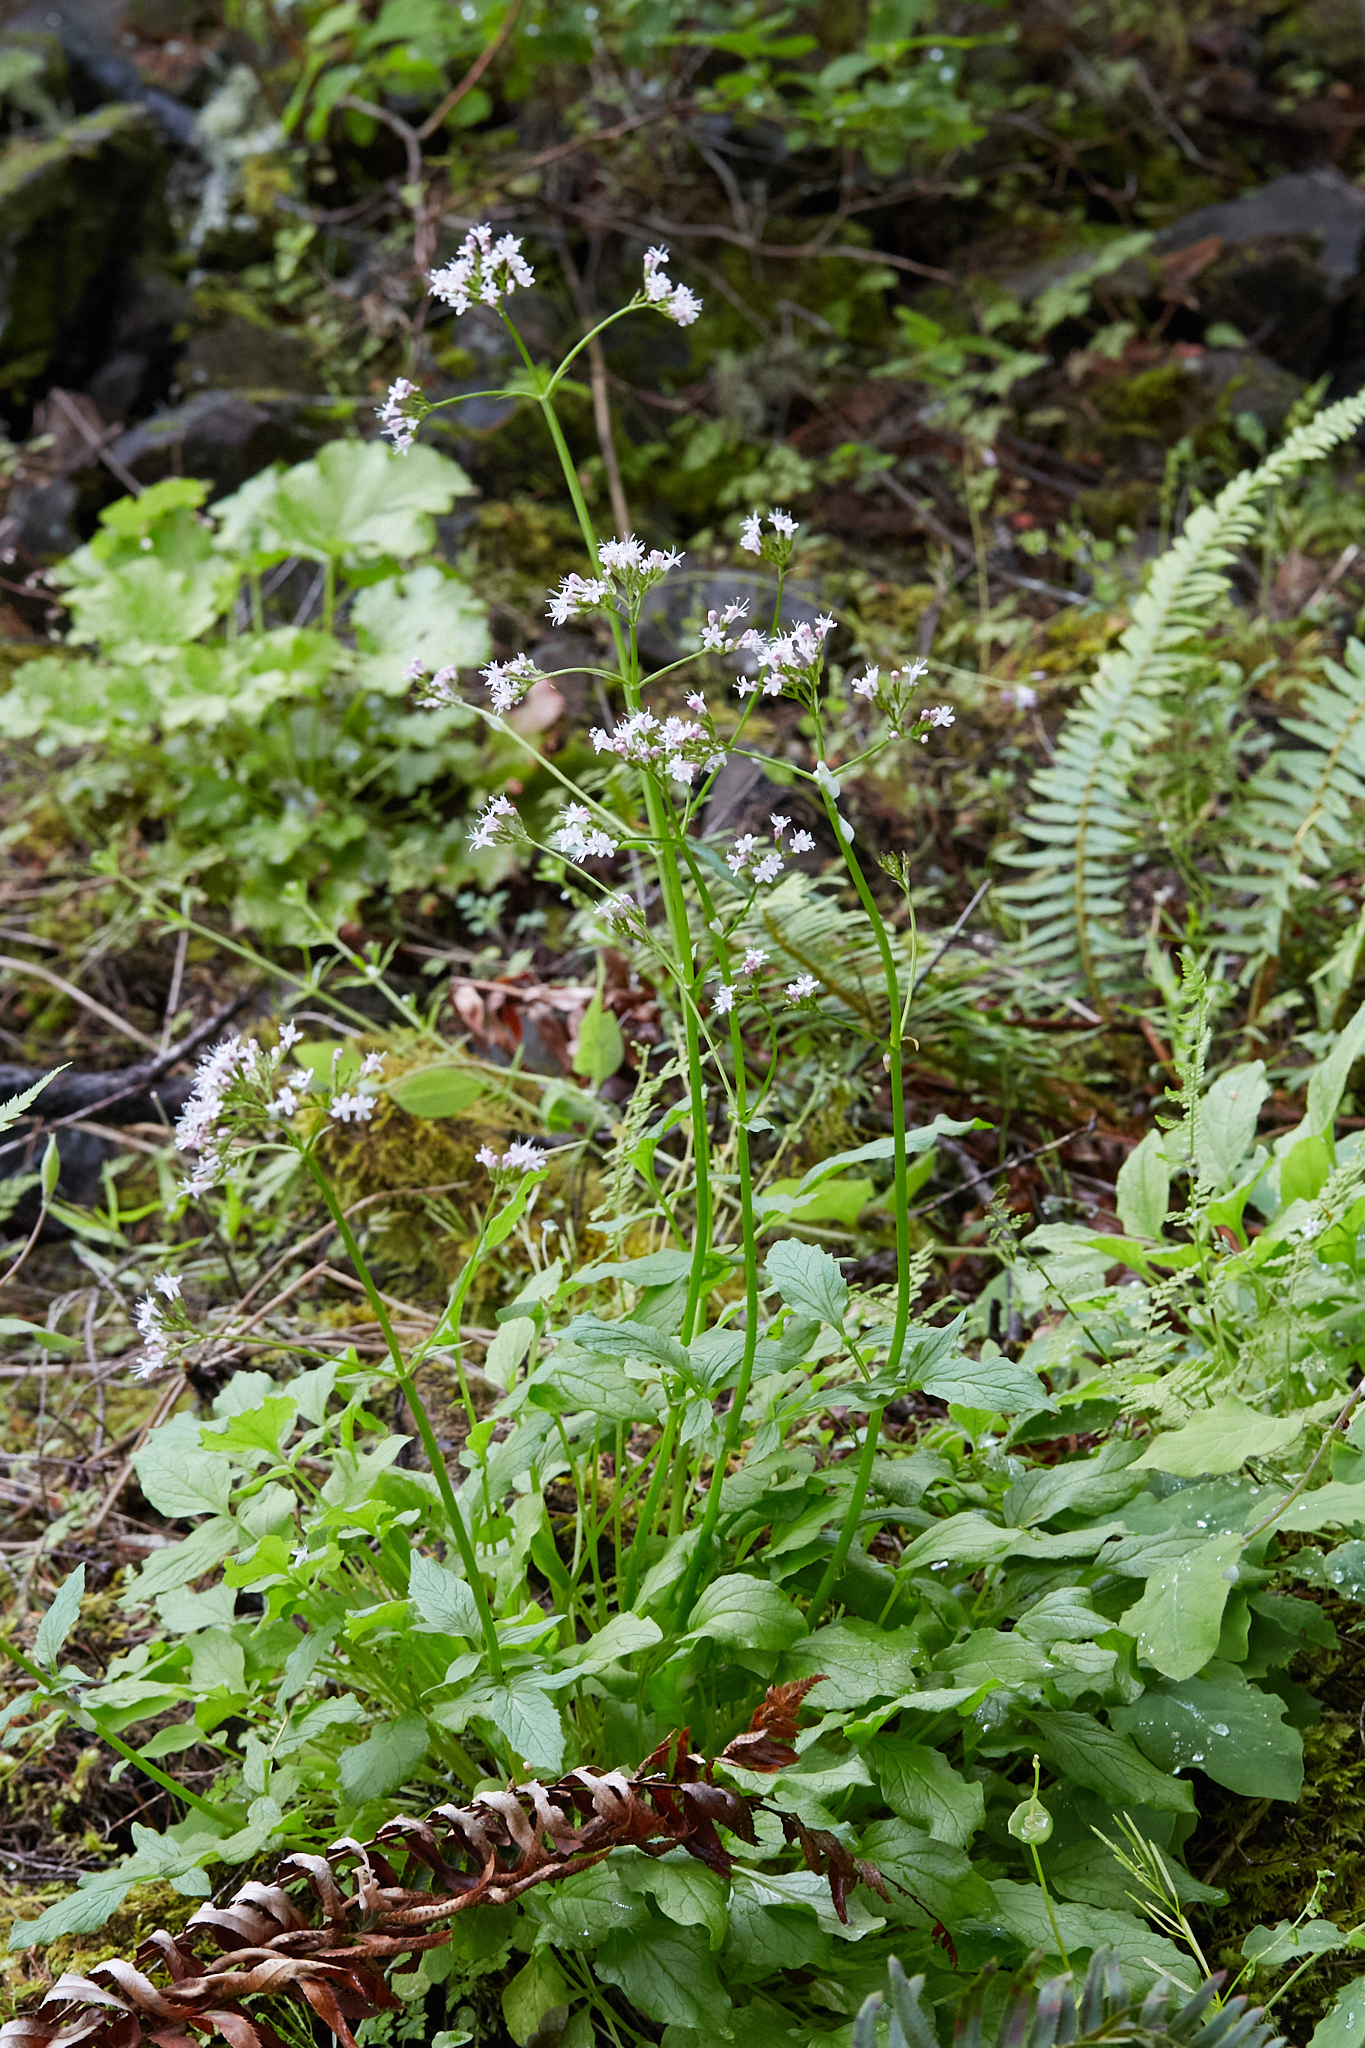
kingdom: Plantae
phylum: Tracheophyta
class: Magnoliopsida
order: Dipsacales
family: Caprifoliaceae
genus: Valeriana
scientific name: Valeriana scouleri
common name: Scouler's valerian
